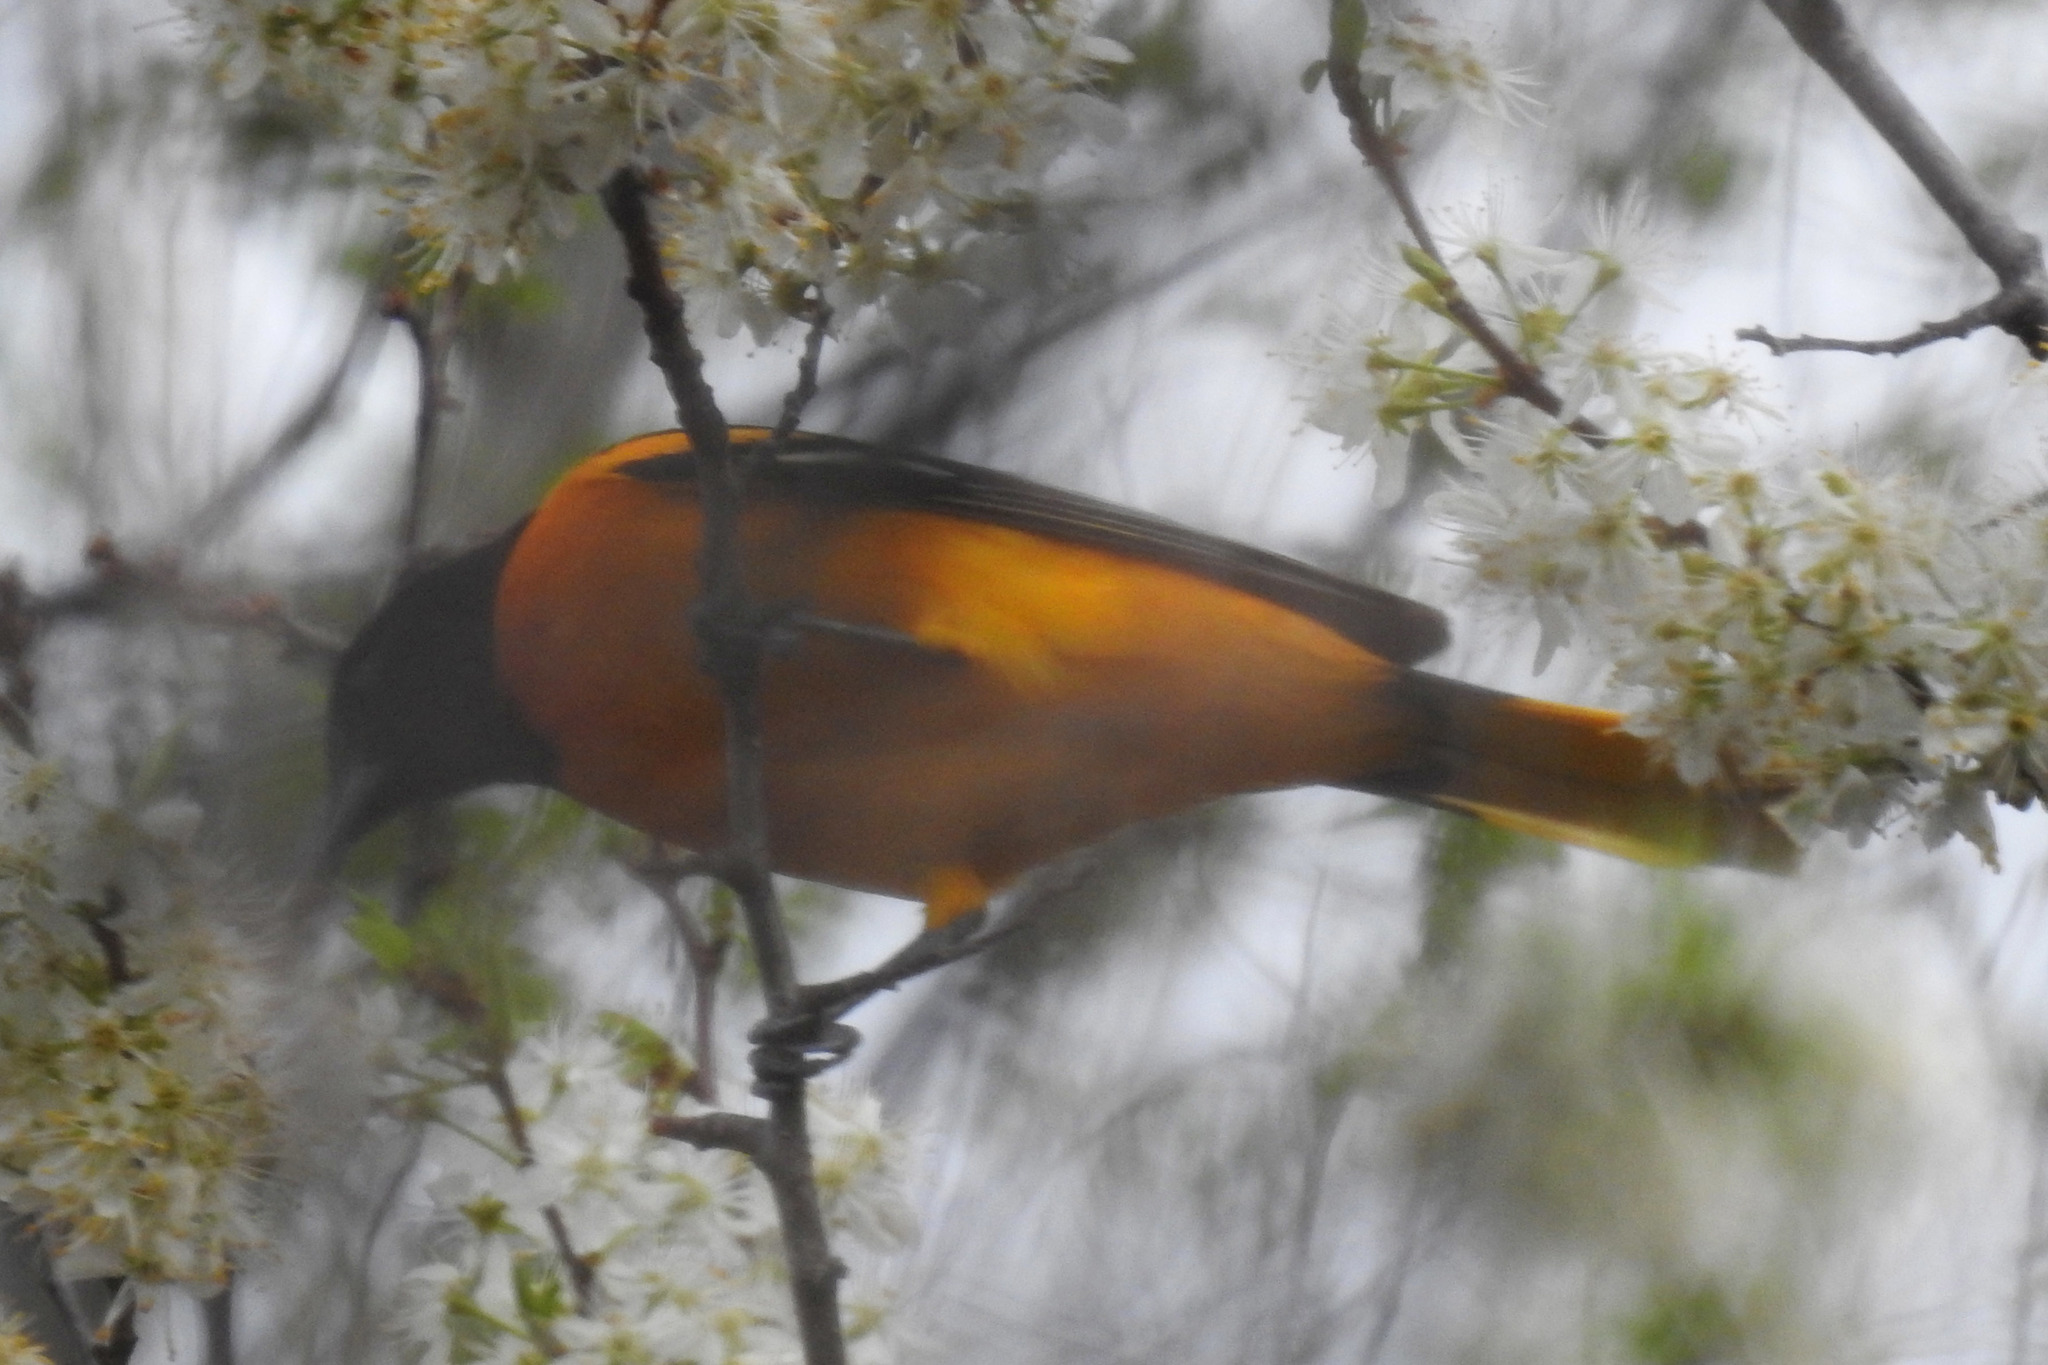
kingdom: Animalia
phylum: Chordata
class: Aves
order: Passeriformes
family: Icteridae
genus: Icterus
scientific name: Icterus galbula
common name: Baltimore oriole
